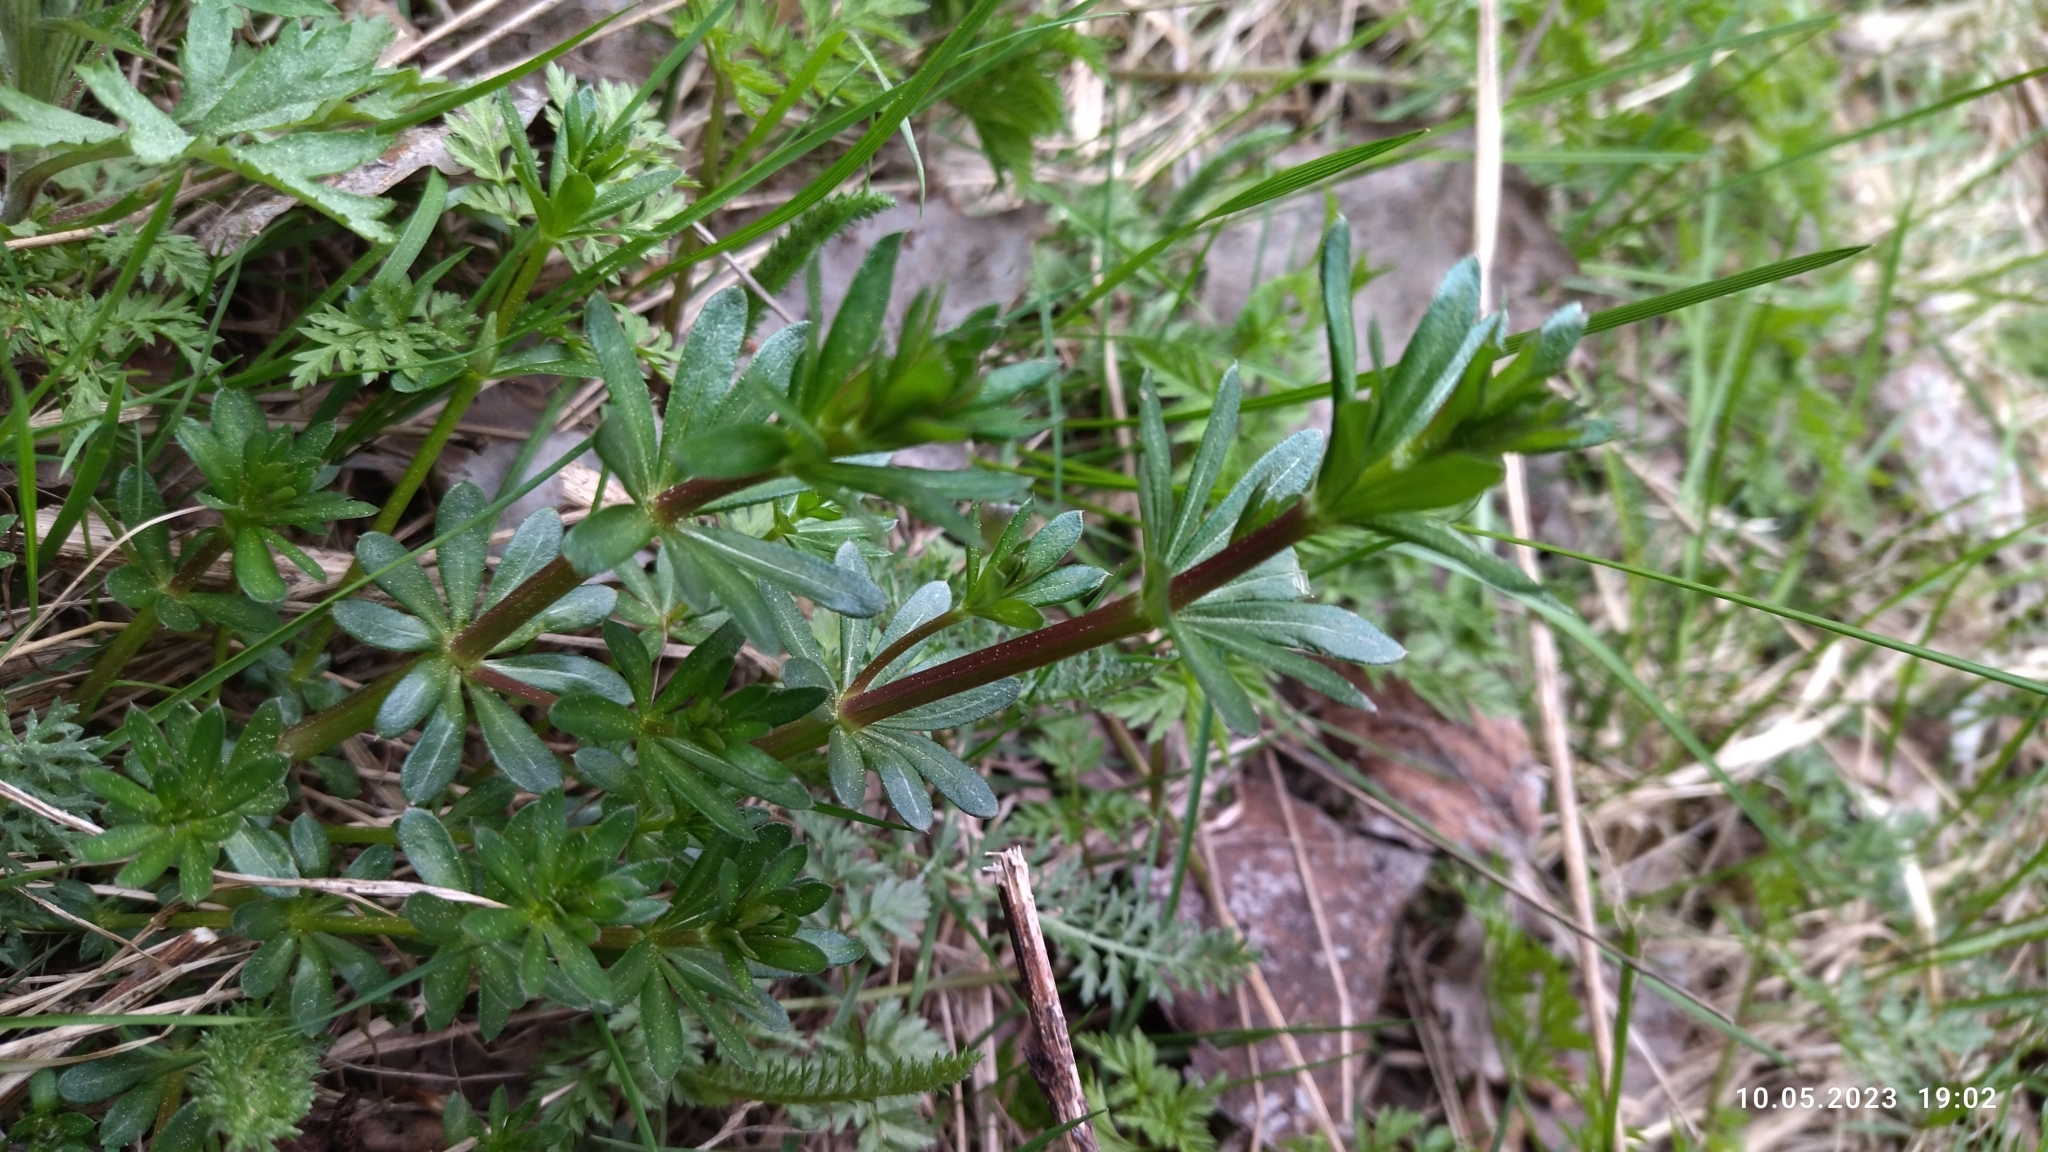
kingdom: Plantae
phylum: Tracheophyta
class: Magnoliopsida
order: Gentianales
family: Rubiaceae
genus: Galium
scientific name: Galium mollugo
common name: Hedge bedstraw
